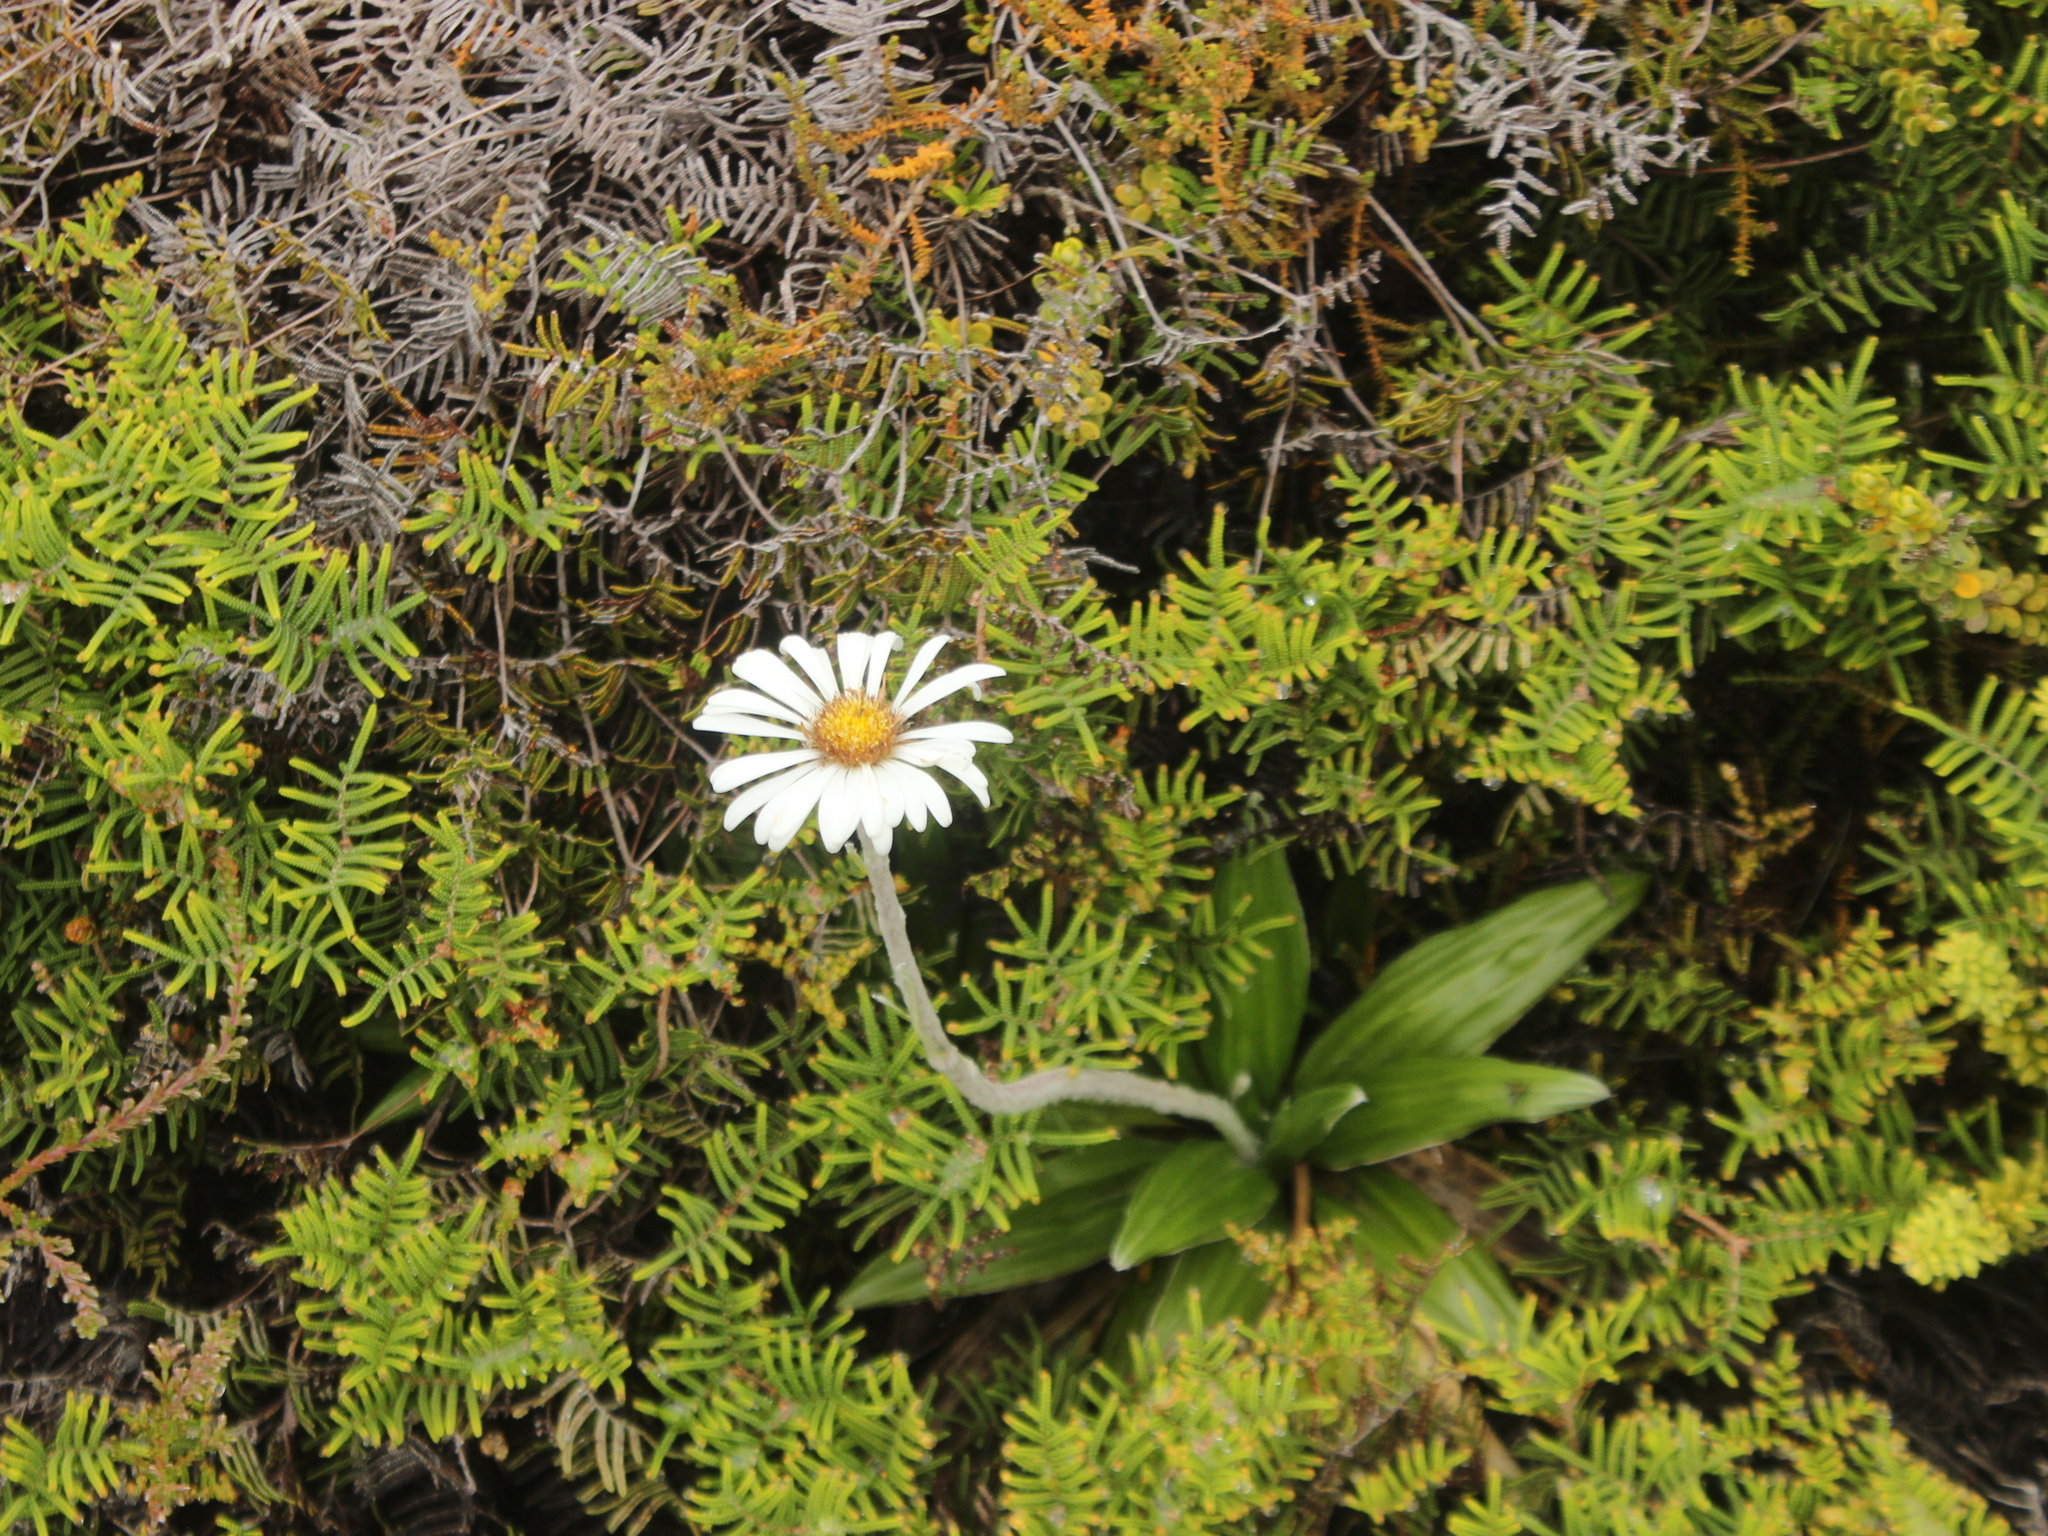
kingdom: Plantae
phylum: Tracheophyta
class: Magnoliopsida
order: Asterales
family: Asteraceae
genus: Celmisia
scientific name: Celmisia spectabilis
